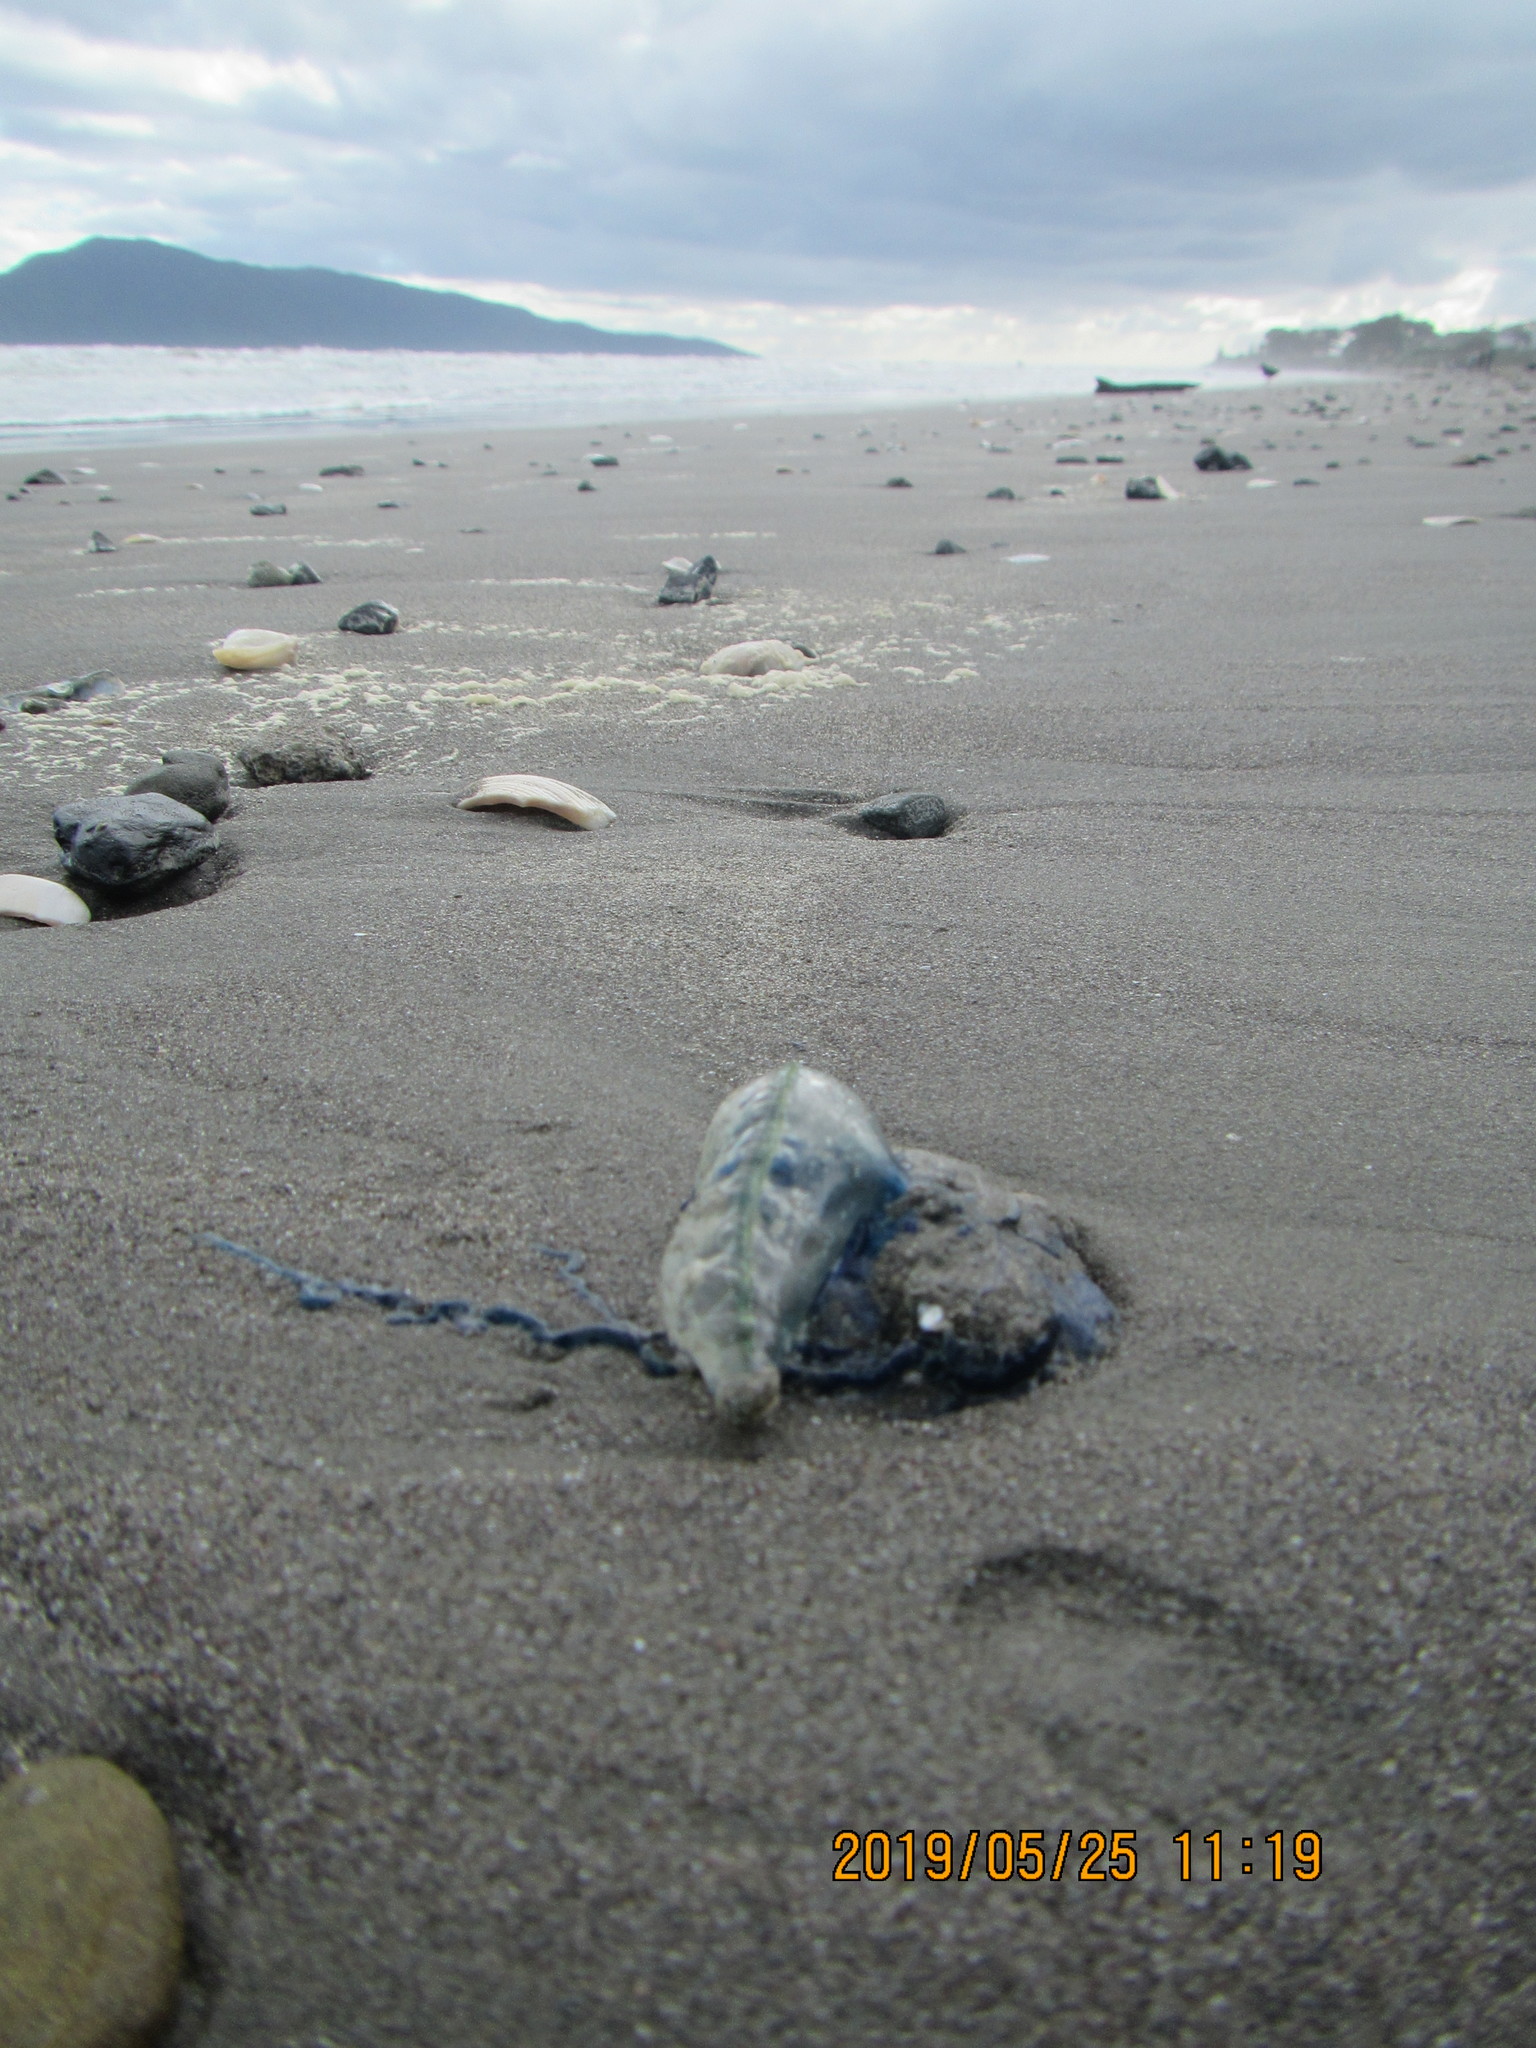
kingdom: Animalia
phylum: Cnidaria
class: Hydrozoa
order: Siphonophorae
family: Physaliidae
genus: Physalia
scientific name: Physalia physalis
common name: Portuguese man-of-war
